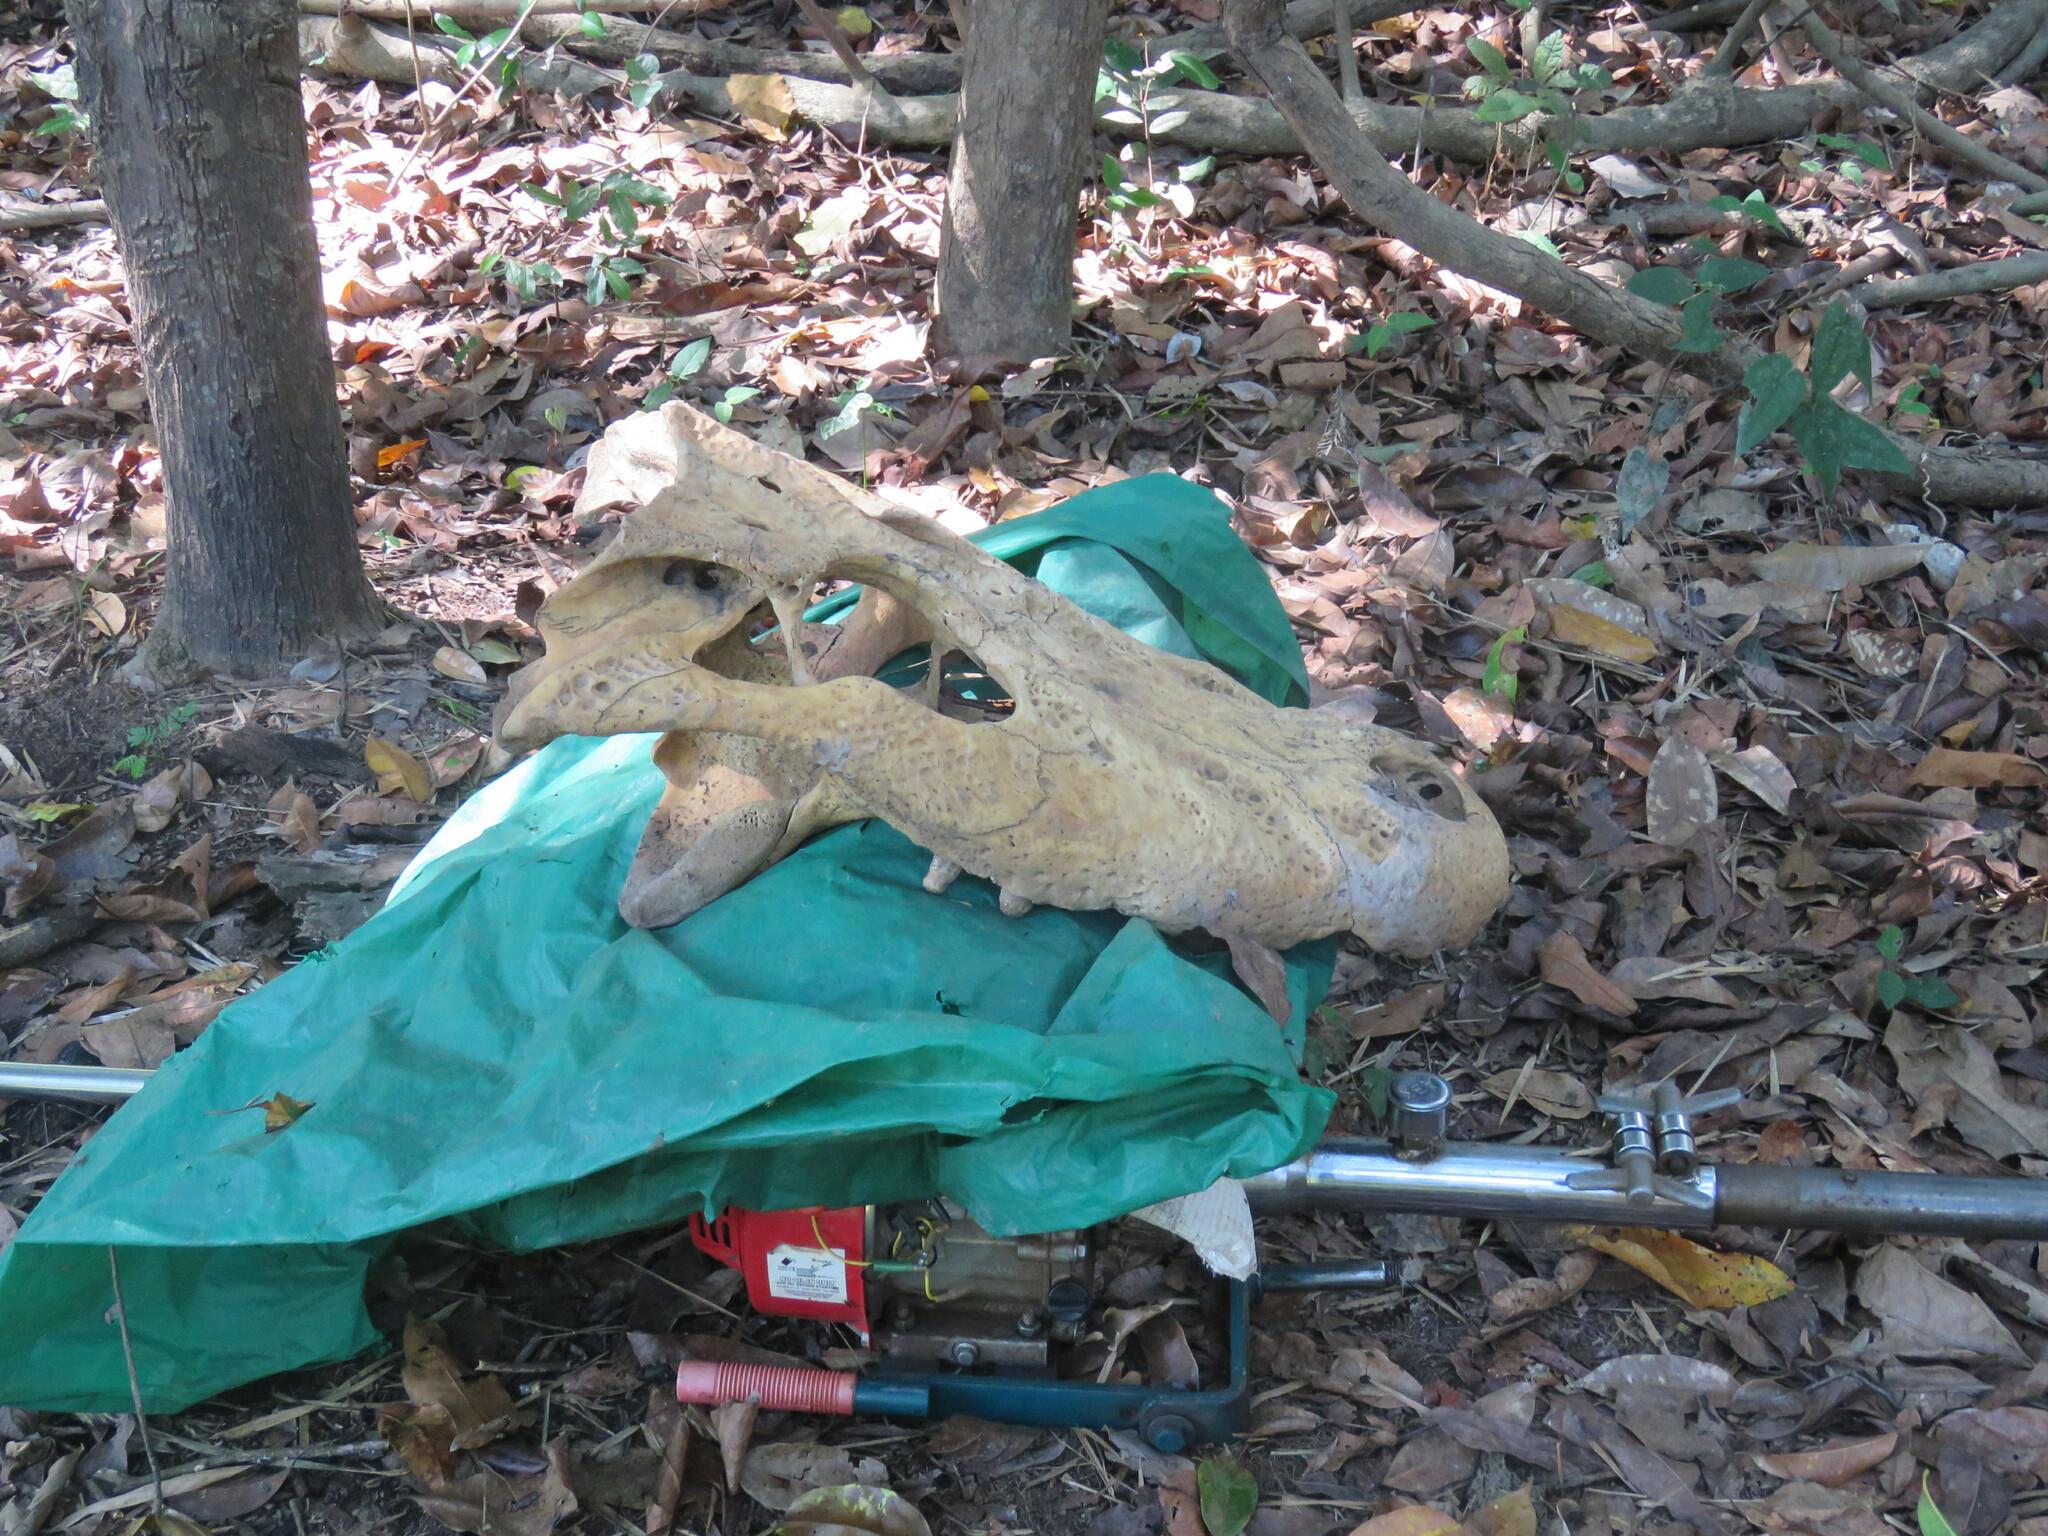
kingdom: Animalia
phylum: Chordata
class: Crocodylia
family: Alligatoridae
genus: Melanosuchus
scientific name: Melanosuchus niger
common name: Black caiman
